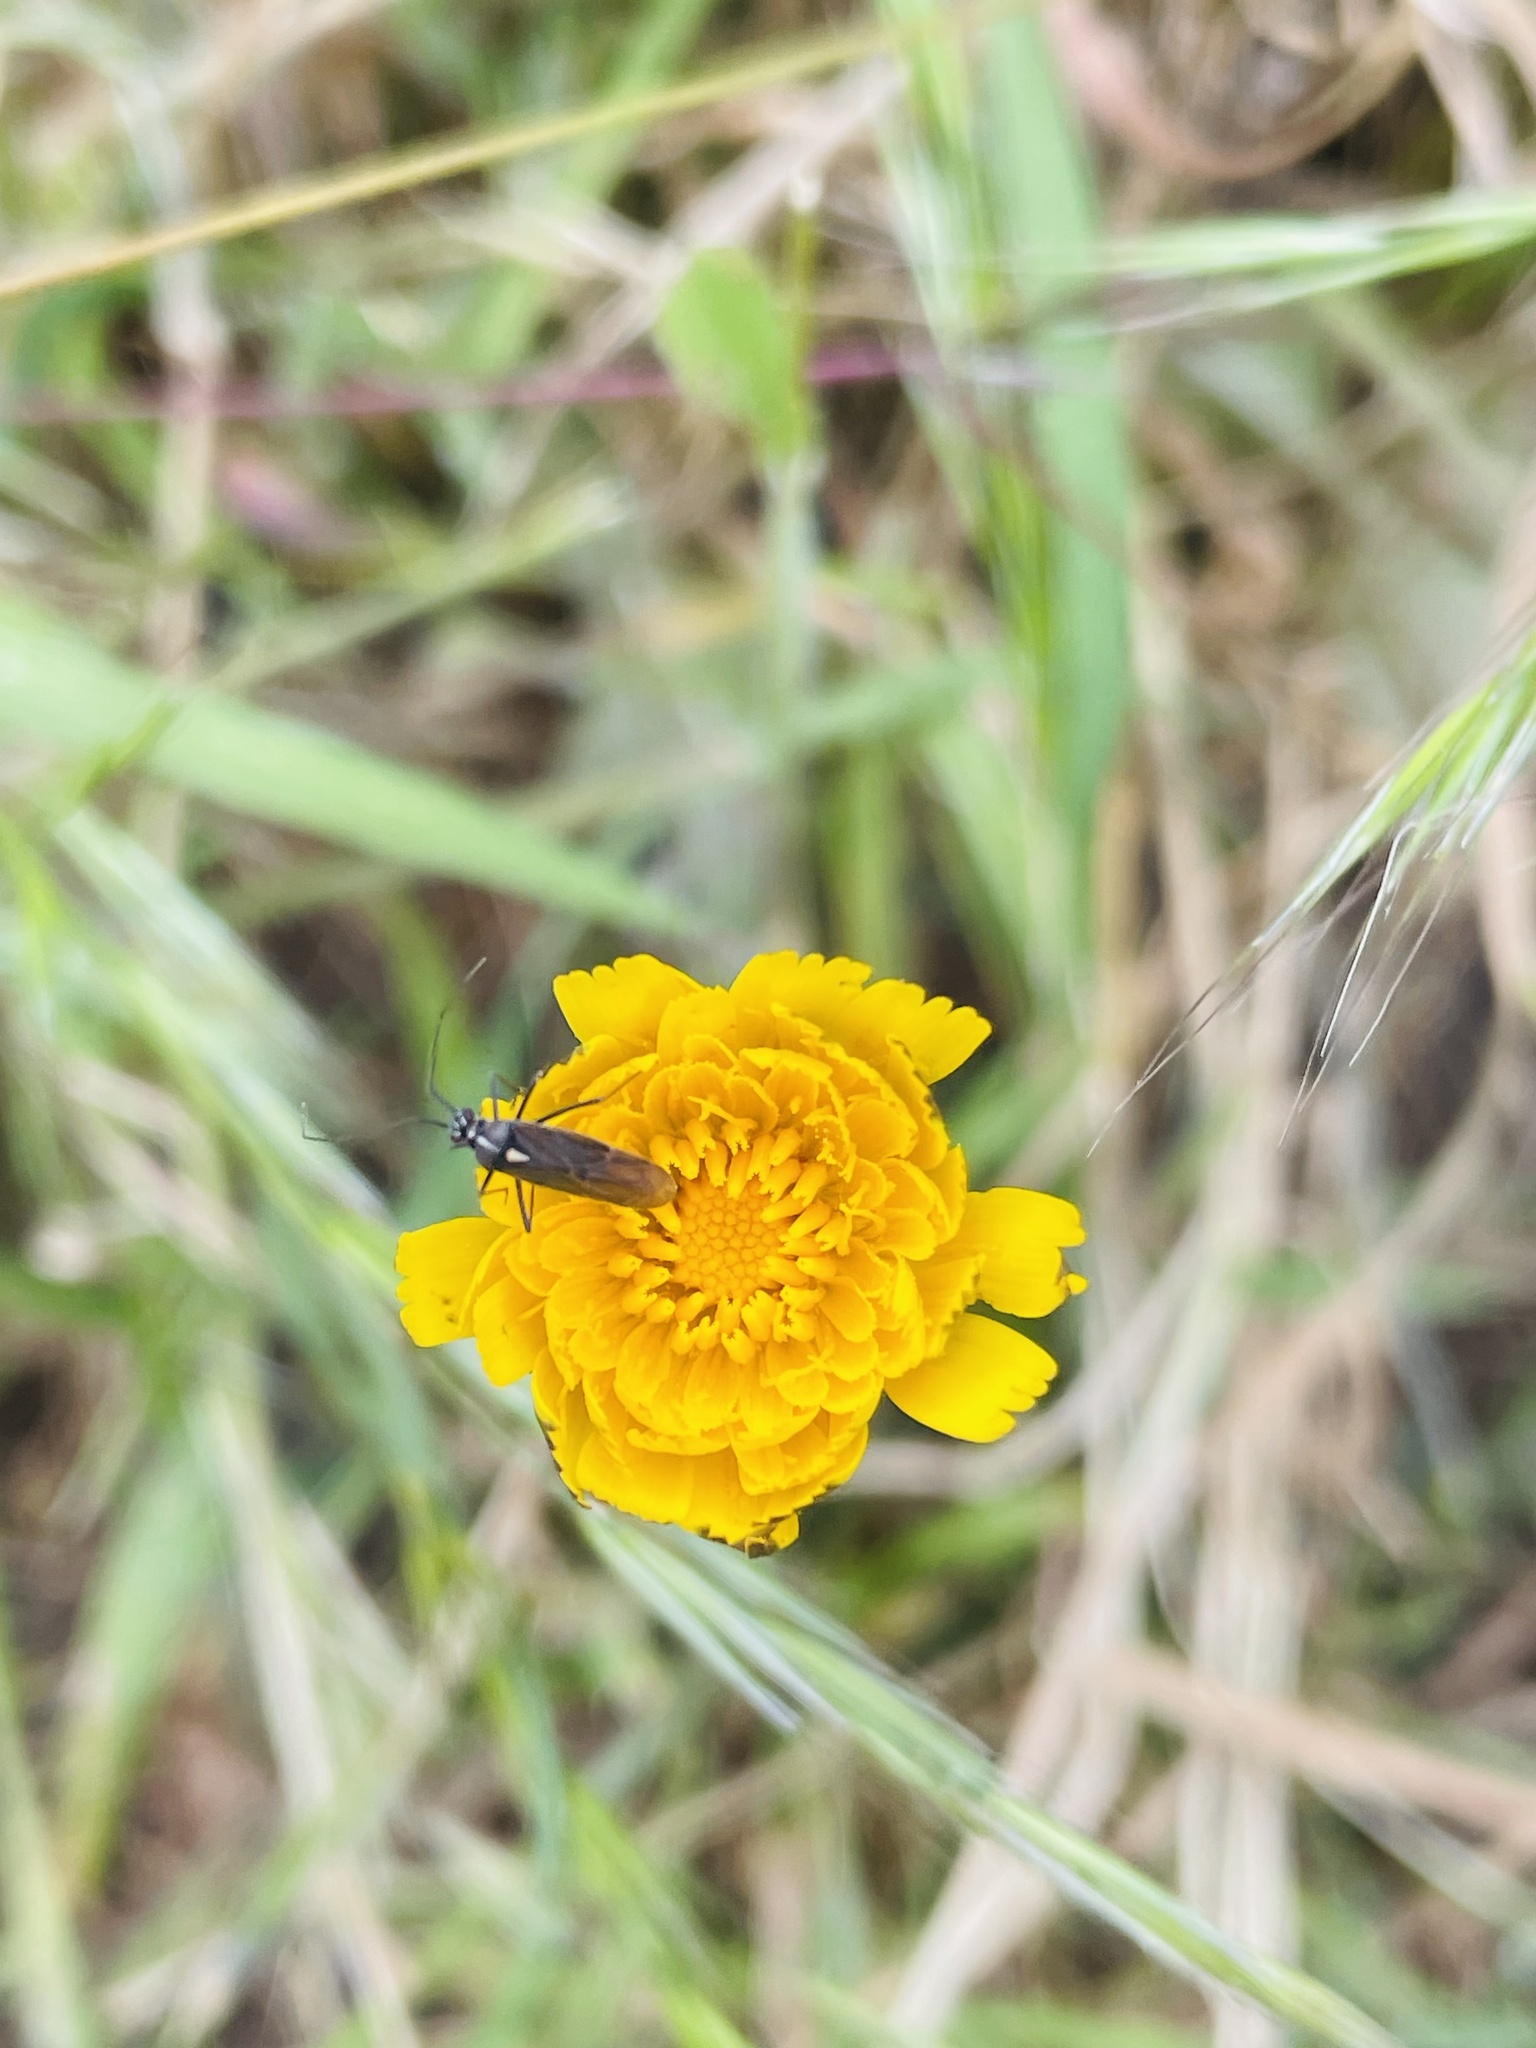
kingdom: Animalia
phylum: Arthropoda
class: Insecta
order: Hemiptera
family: Miridae
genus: Stenoparedra
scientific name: Stenoparedra
